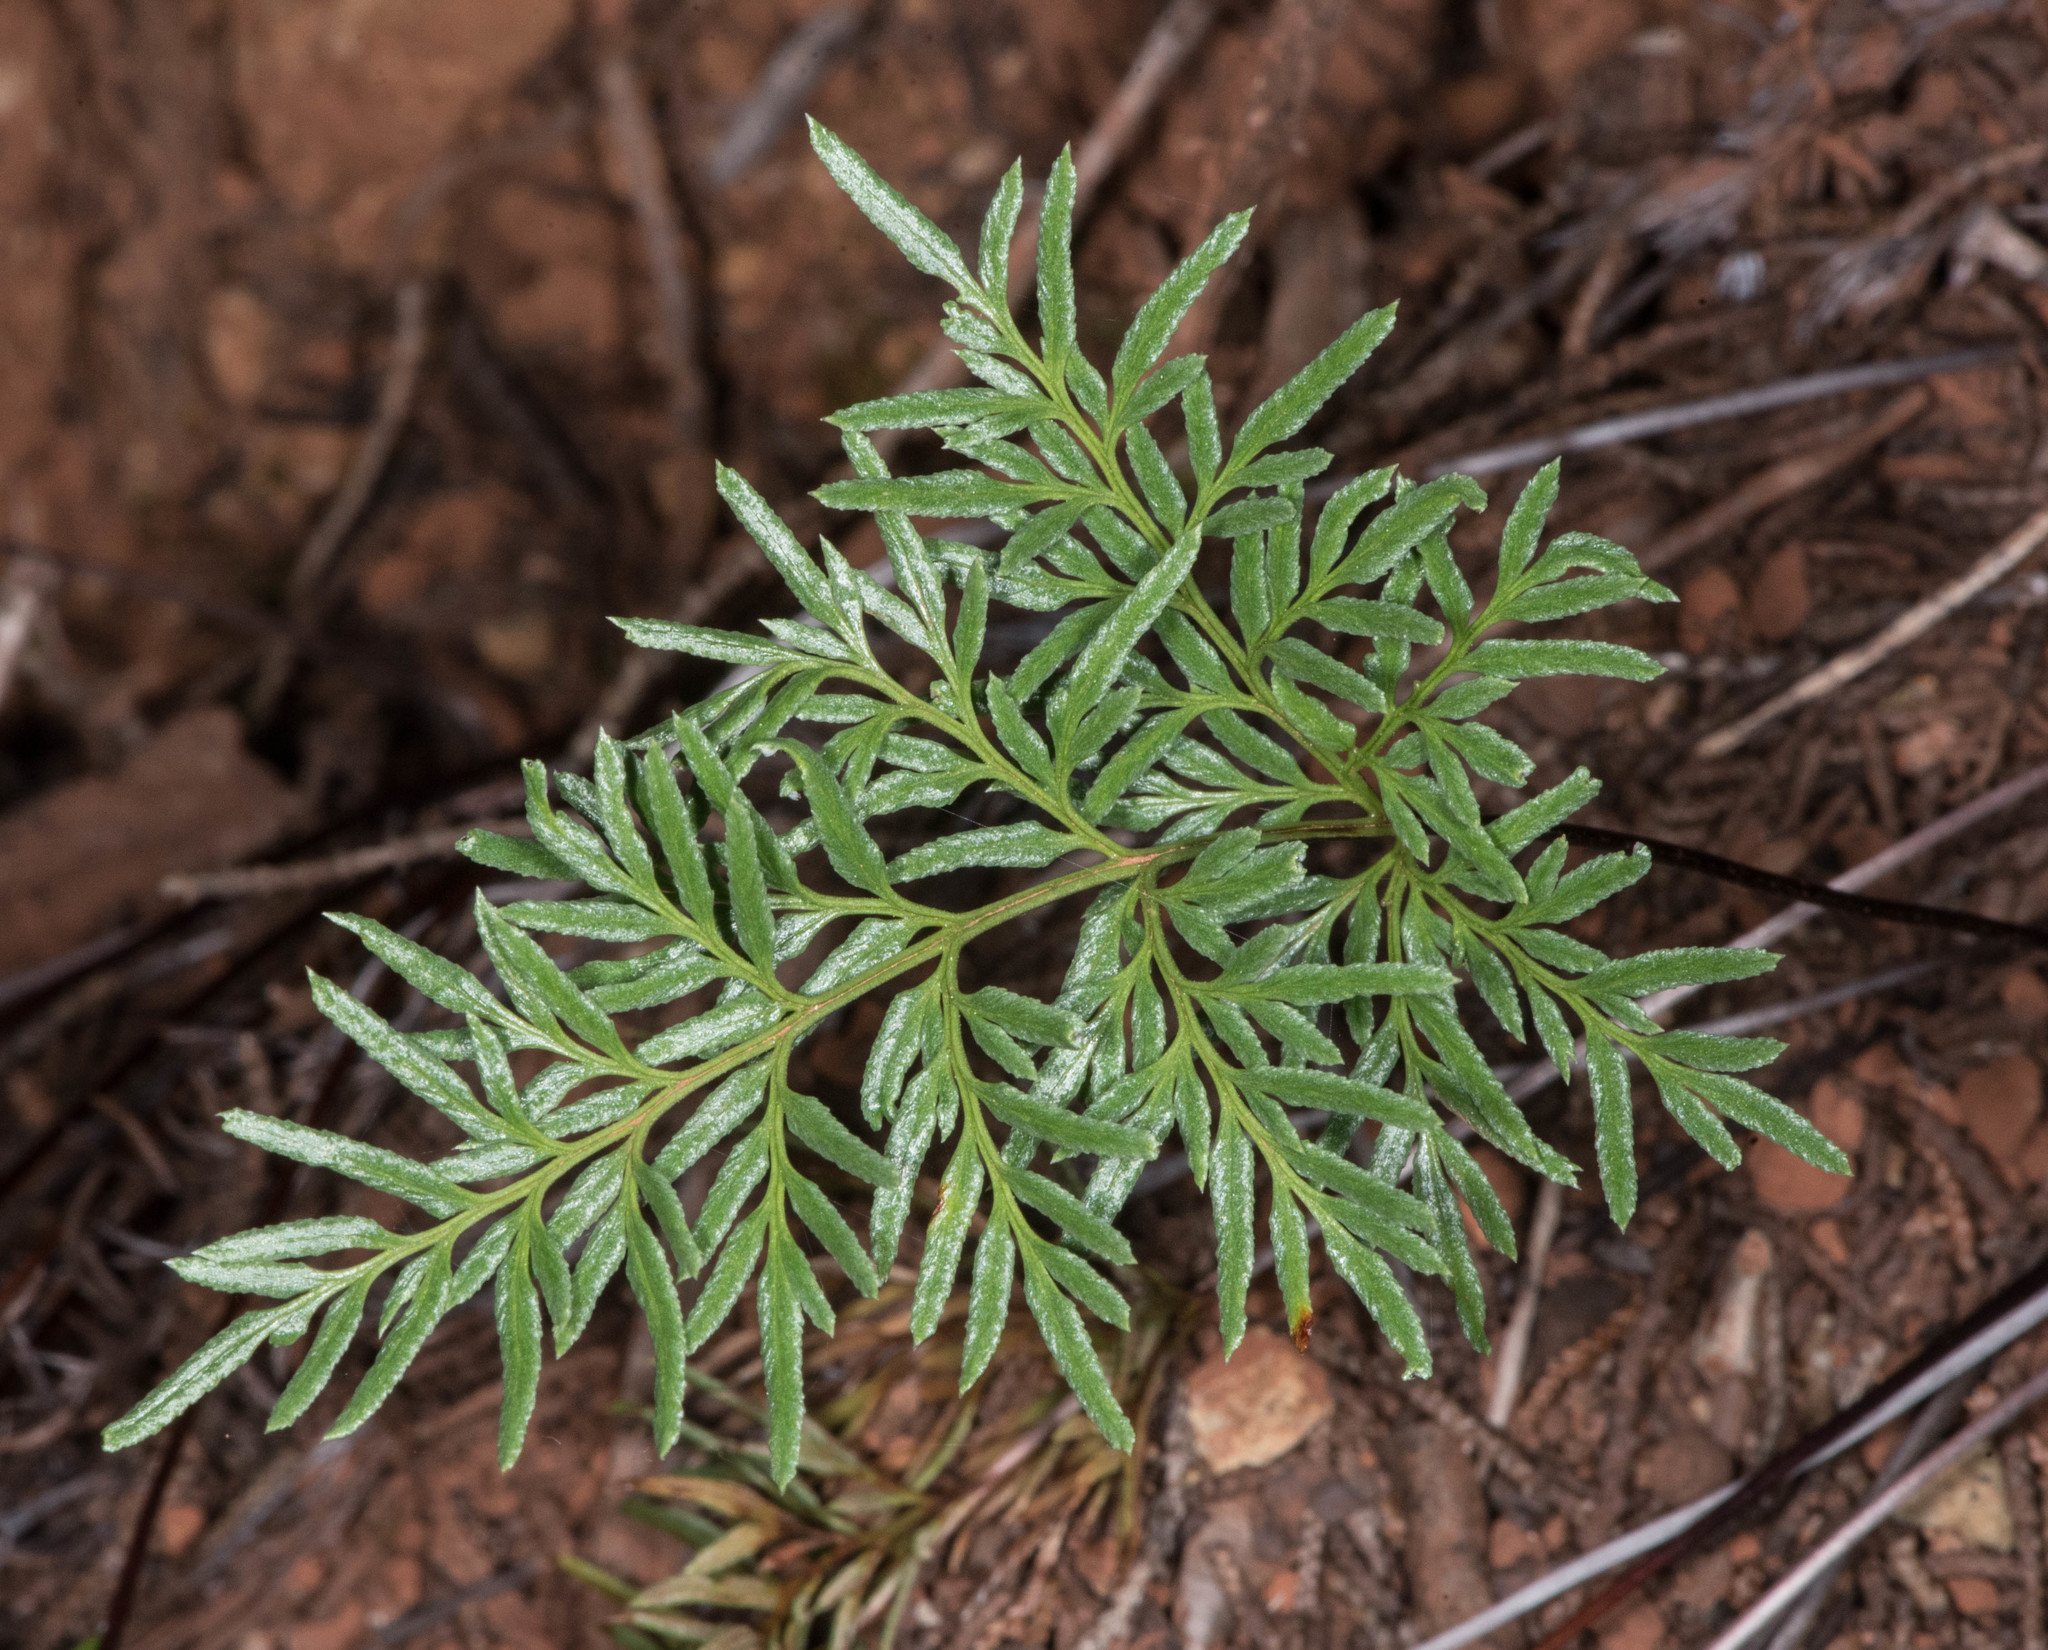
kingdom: Plantae
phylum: Tracheophyta
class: Polypodiopsida
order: Polypodiales
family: Pteridaceae
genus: Aspidotis
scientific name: Aspidotis densa
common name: Indian's dream
